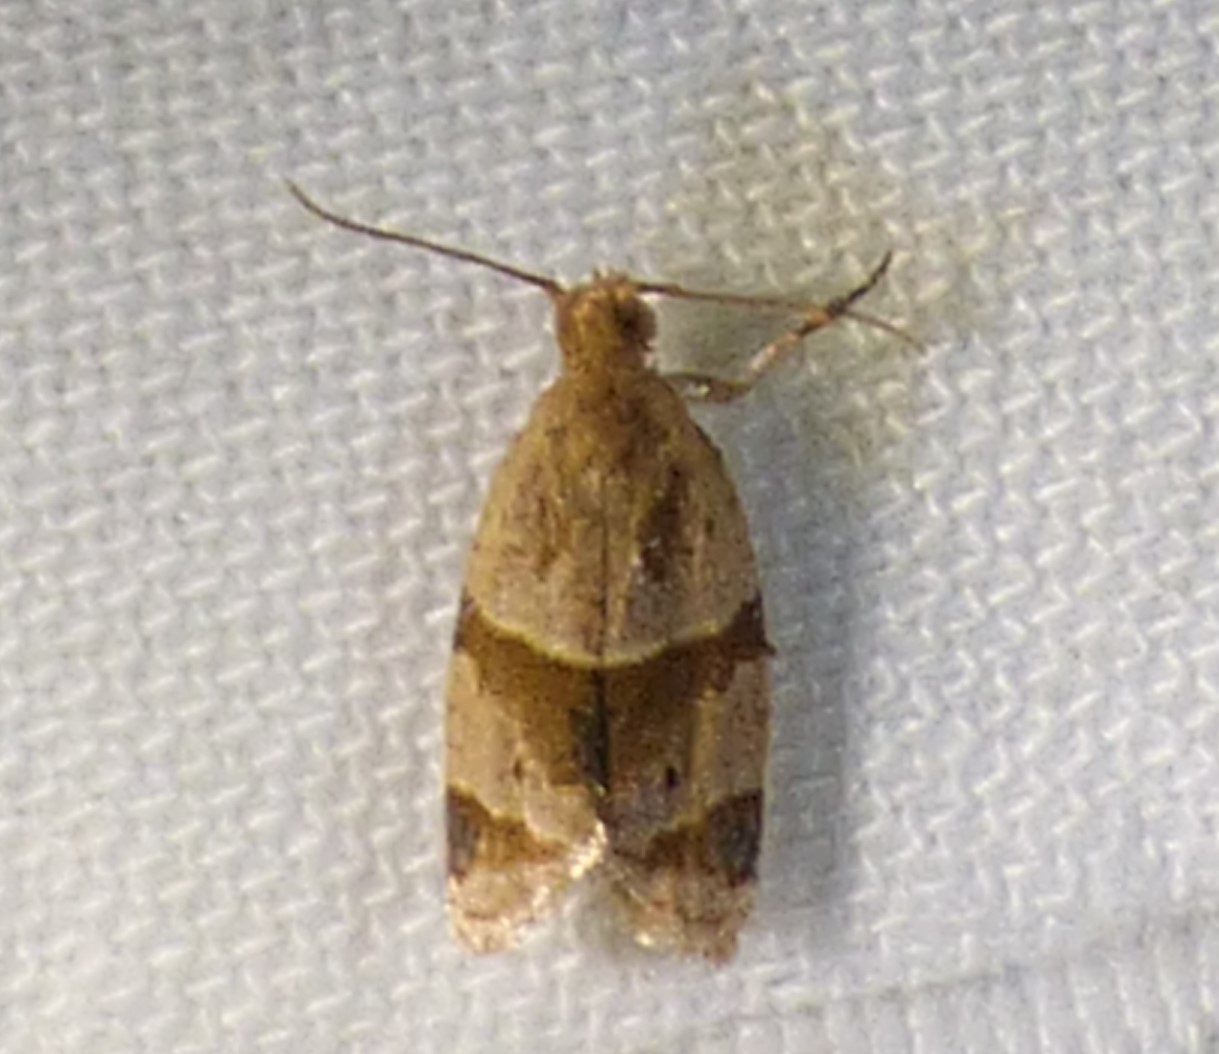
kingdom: Animalia
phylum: Arthropoda
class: Insecta
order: Lepidoptera
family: Tortricidae
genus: Clepsis
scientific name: Clepsis peritana
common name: Garden tortrix
